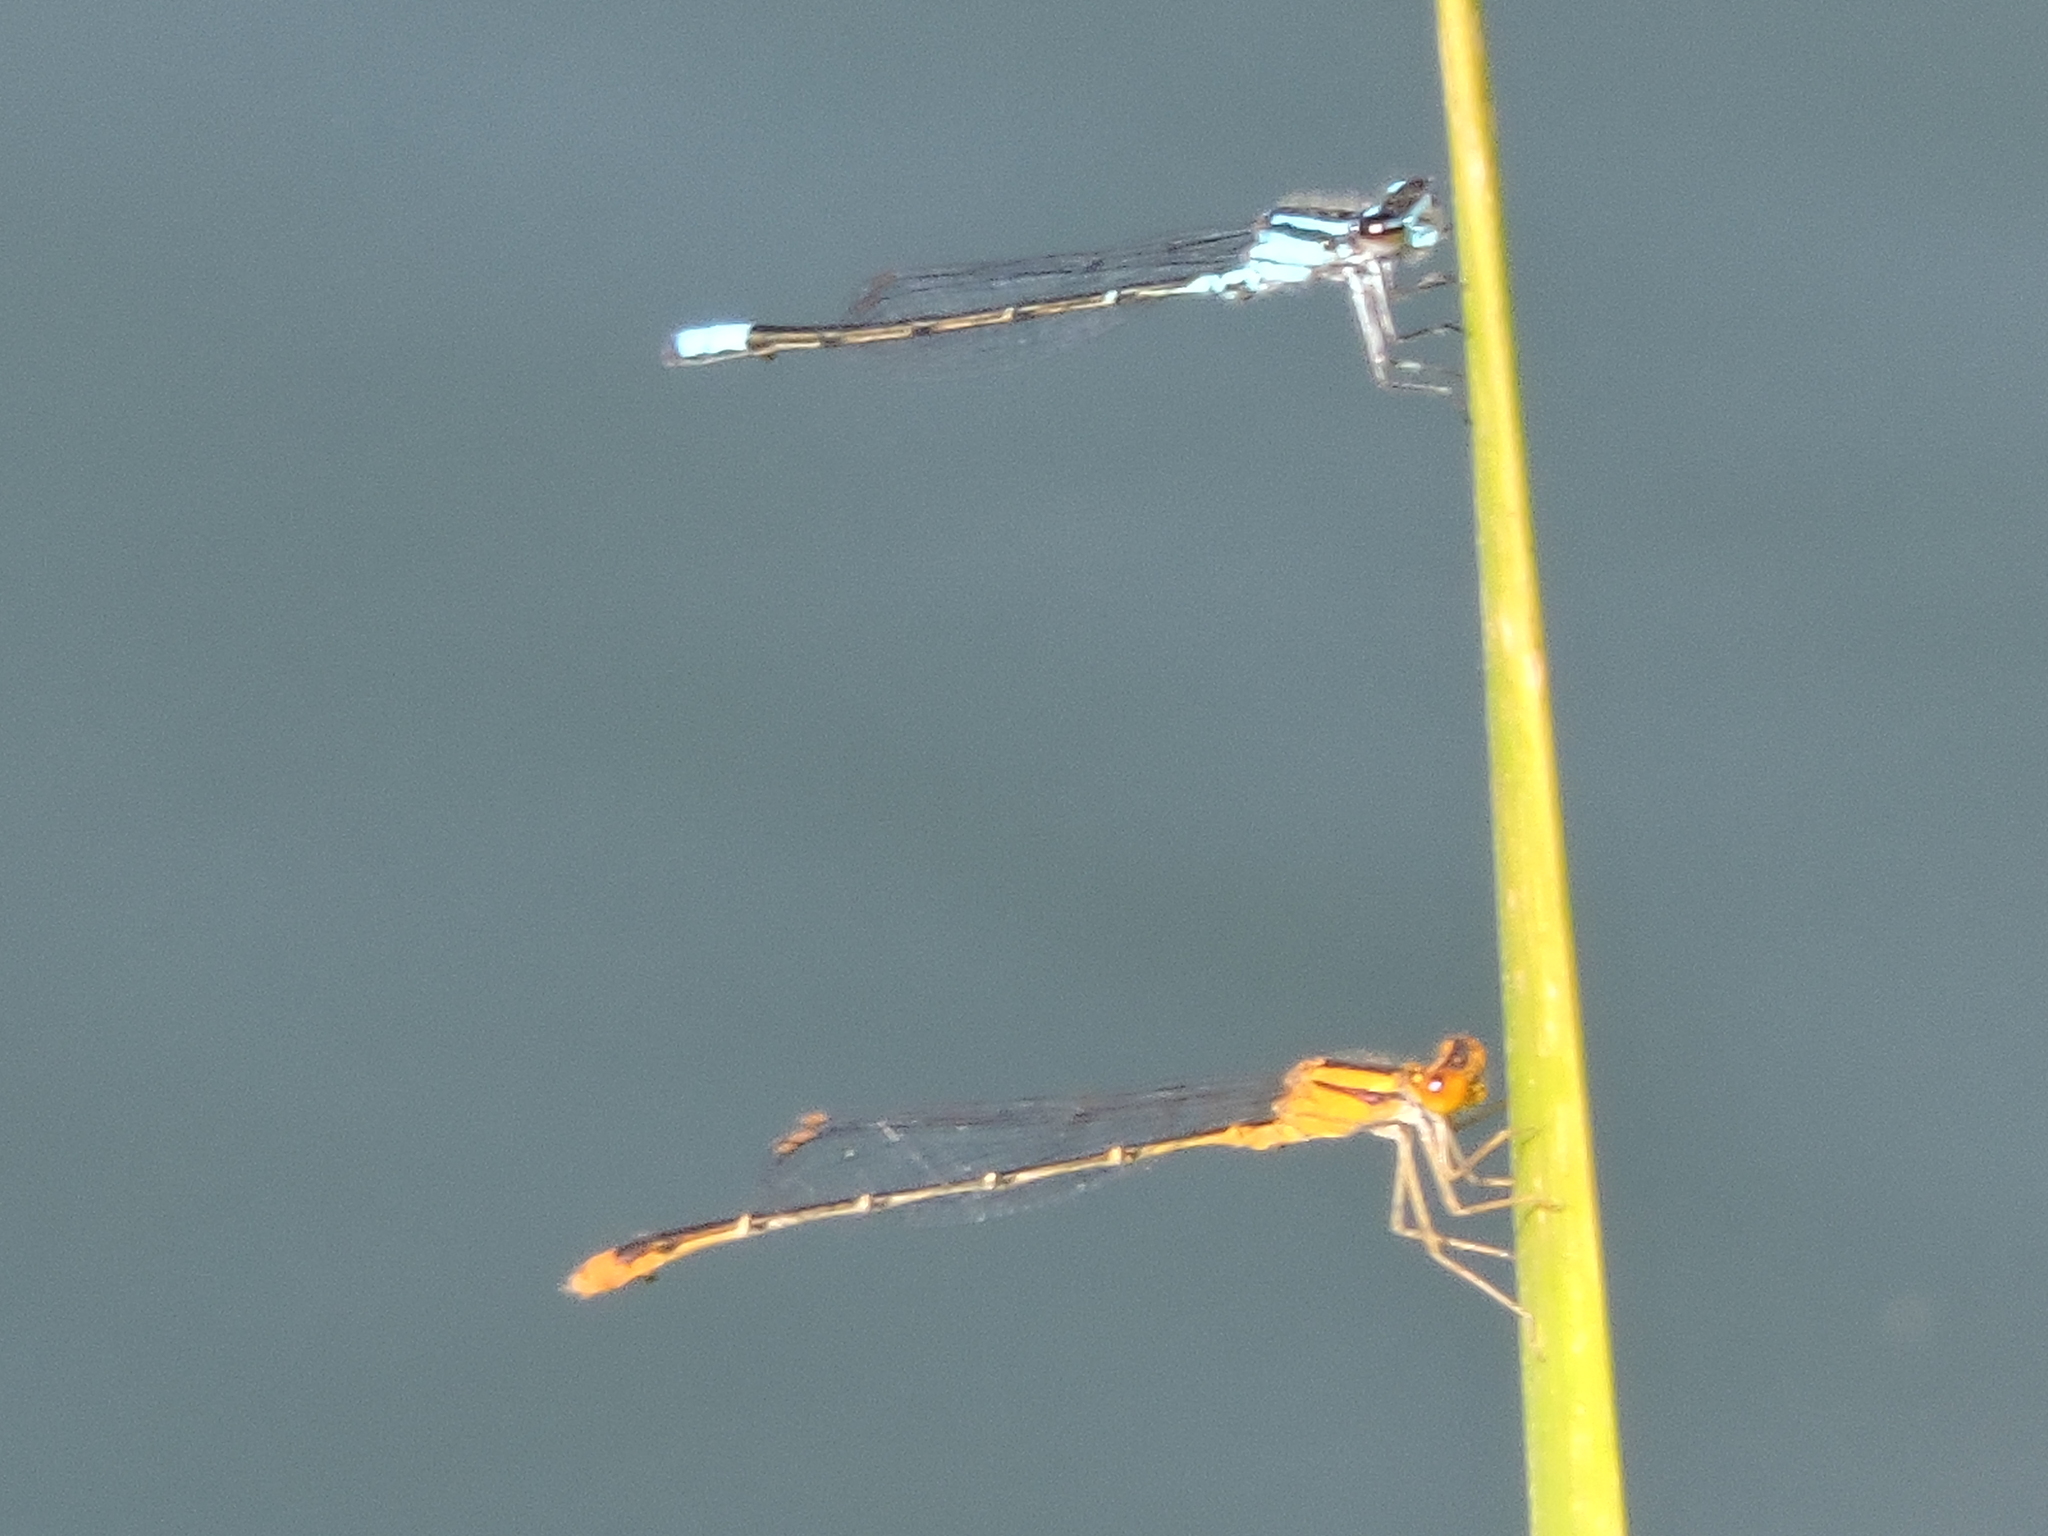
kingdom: Animalia
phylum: Arthropoda
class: Insecta
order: Odonata
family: Coenagrionidae
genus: Enallagma
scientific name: Enallagma geminatum
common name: Skimming bluet
